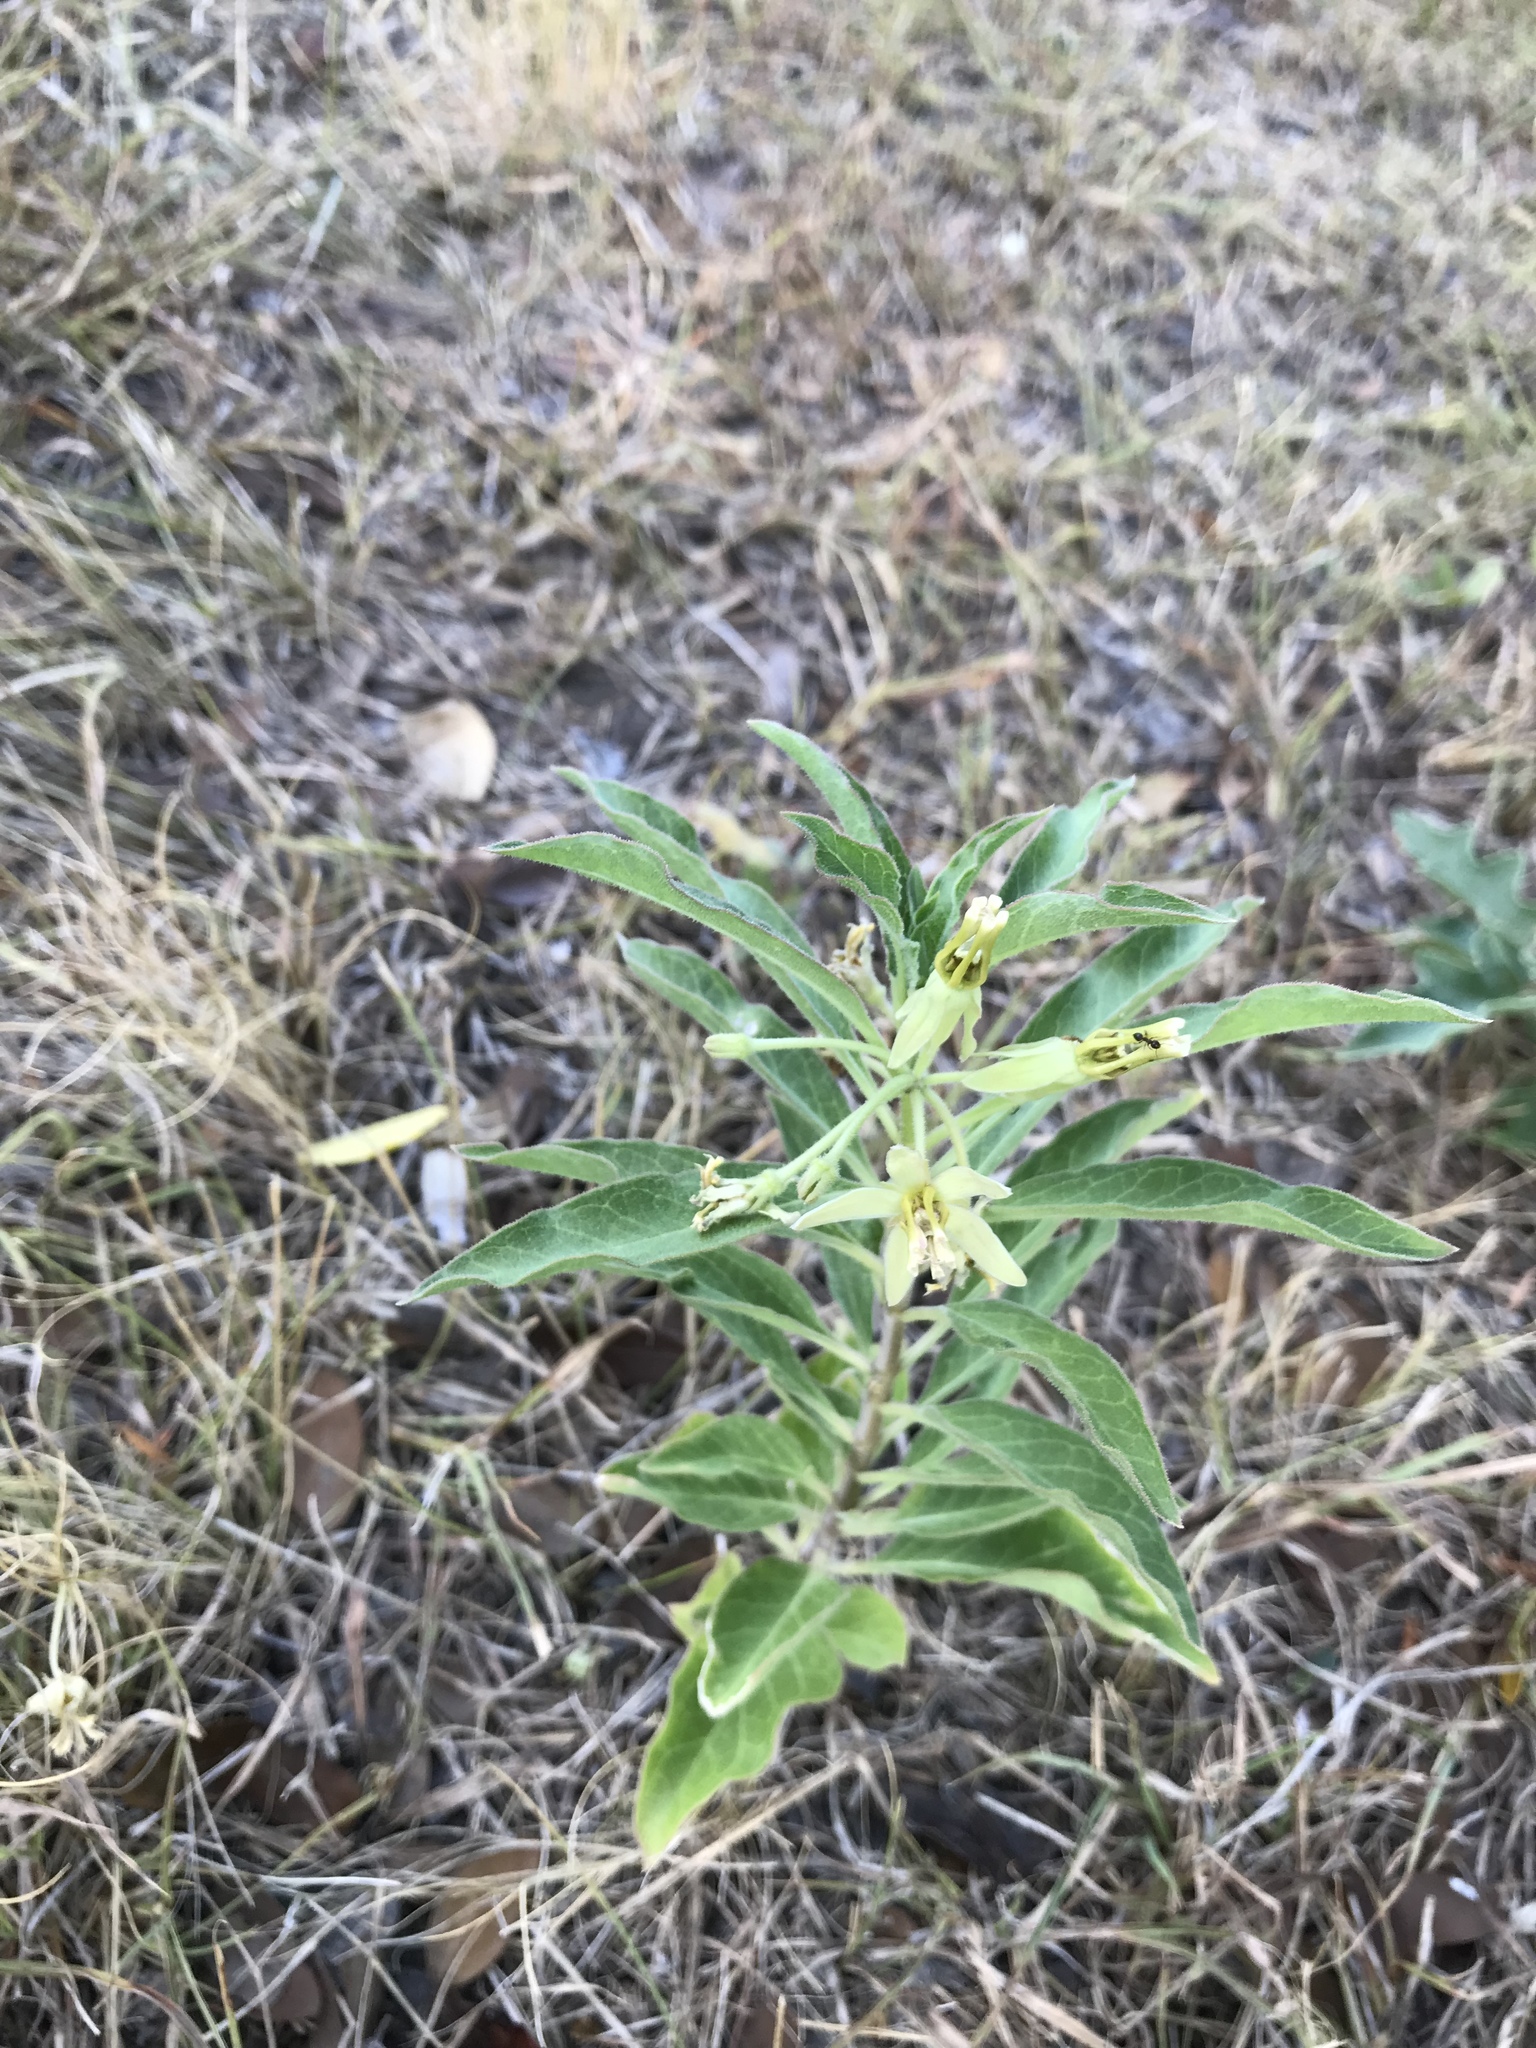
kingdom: Plantae
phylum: Tracheophyta
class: Magnoliopsida
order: Gentianales
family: Apocynaceae
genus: Asclepias
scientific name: Asclepias oenotheroides
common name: Zizotes milkweed
